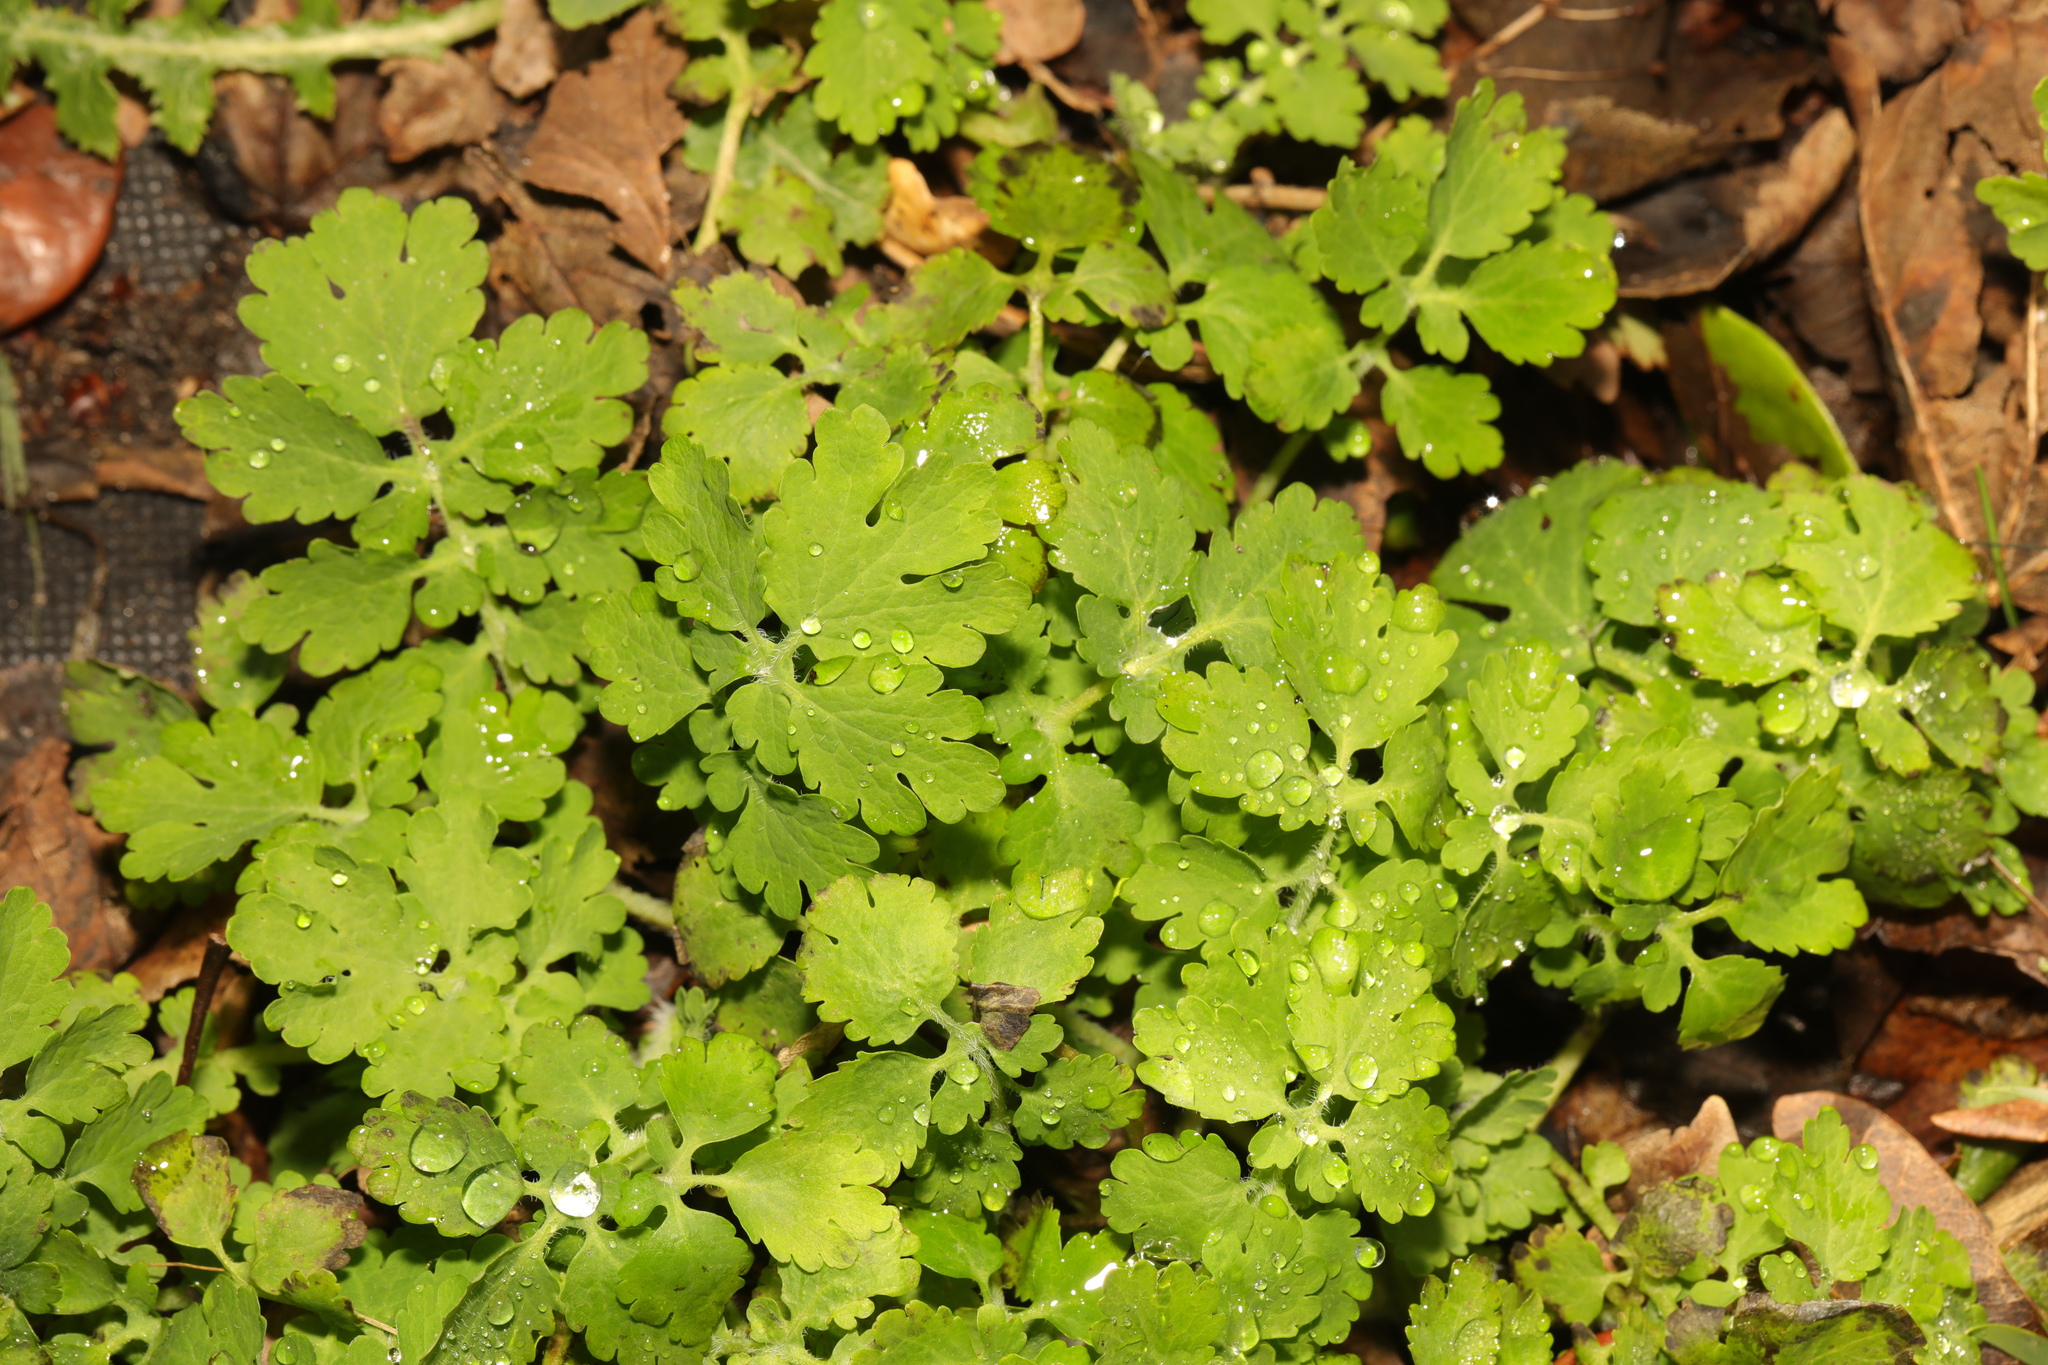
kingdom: Plantae
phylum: Tracheophyta
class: Magnoliopsida
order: Ranunculales
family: Papaveraceae
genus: Chelidonium
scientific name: Chelidonium majus
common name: Greater celandine
